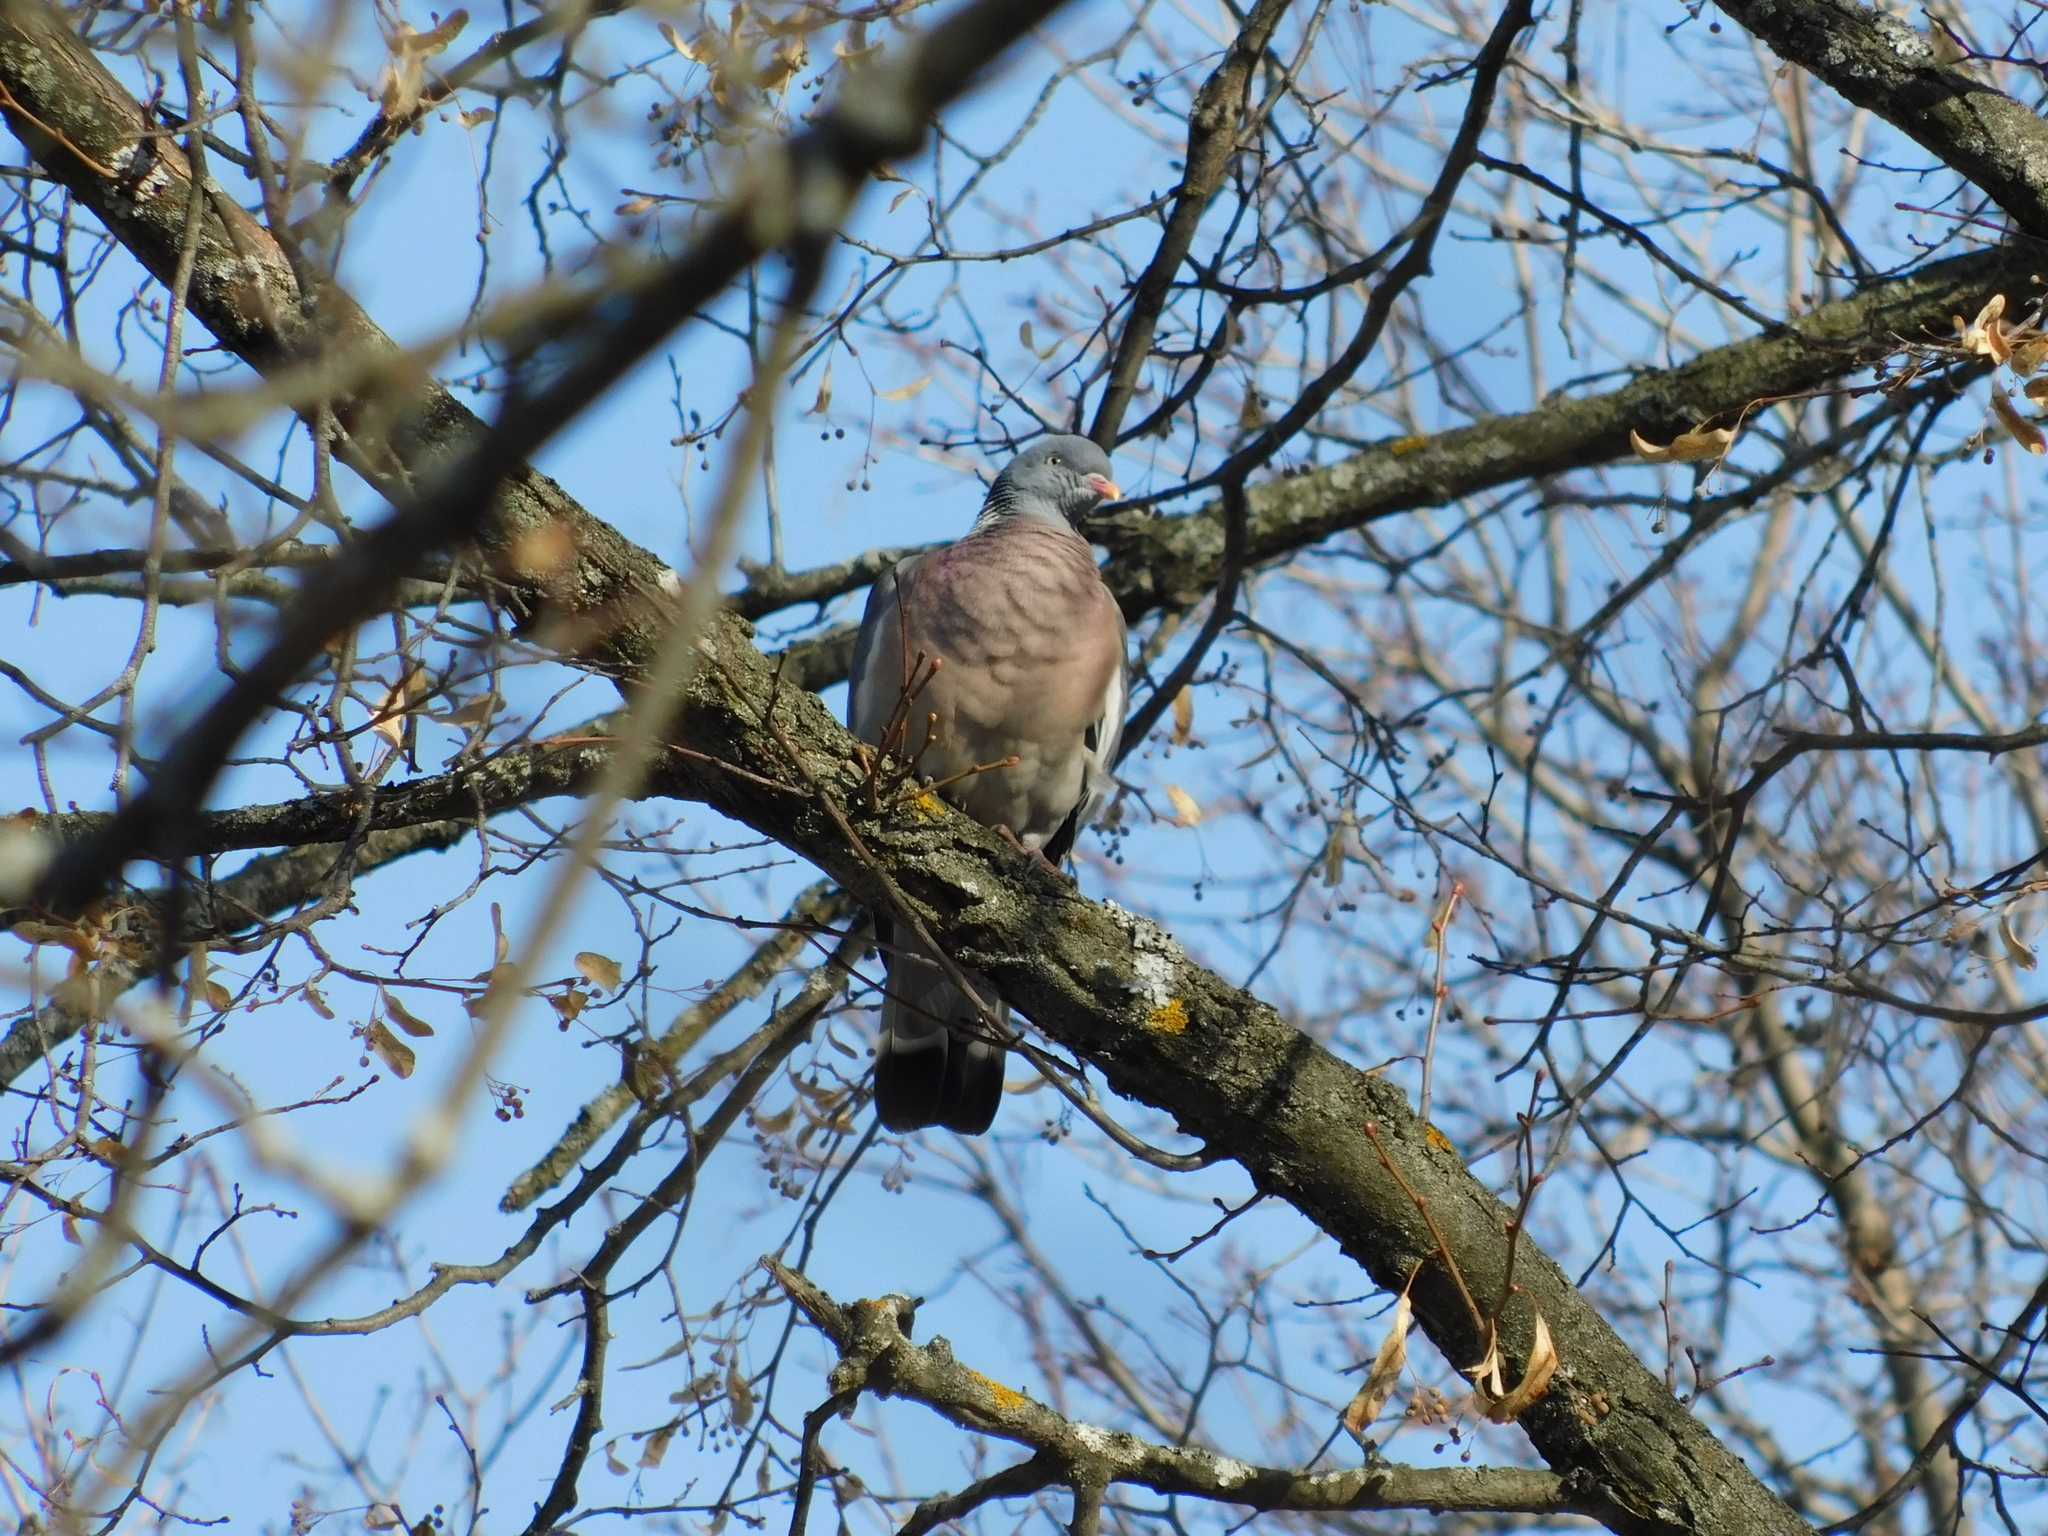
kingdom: Animalia
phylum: Chordata
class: Aves
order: Columbiformes
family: Columbidae
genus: Columba
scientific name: Columba palumbus
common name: Common wood pigeon
